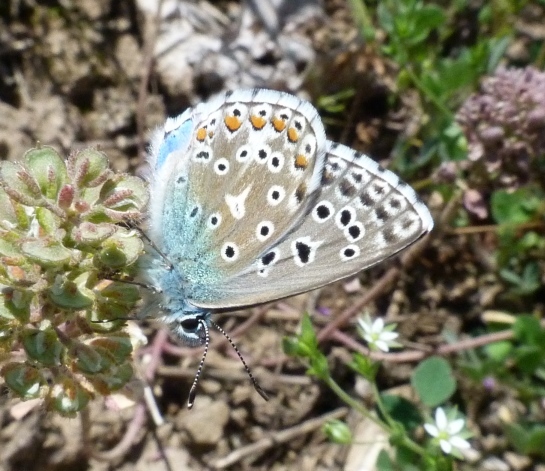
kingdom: Animalia
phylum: Arthropoda
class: Insecta
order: Lepidoptera
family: Lycaenidae
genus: Lysandra
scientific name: Lysandra bellargus
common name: Adonis blue
